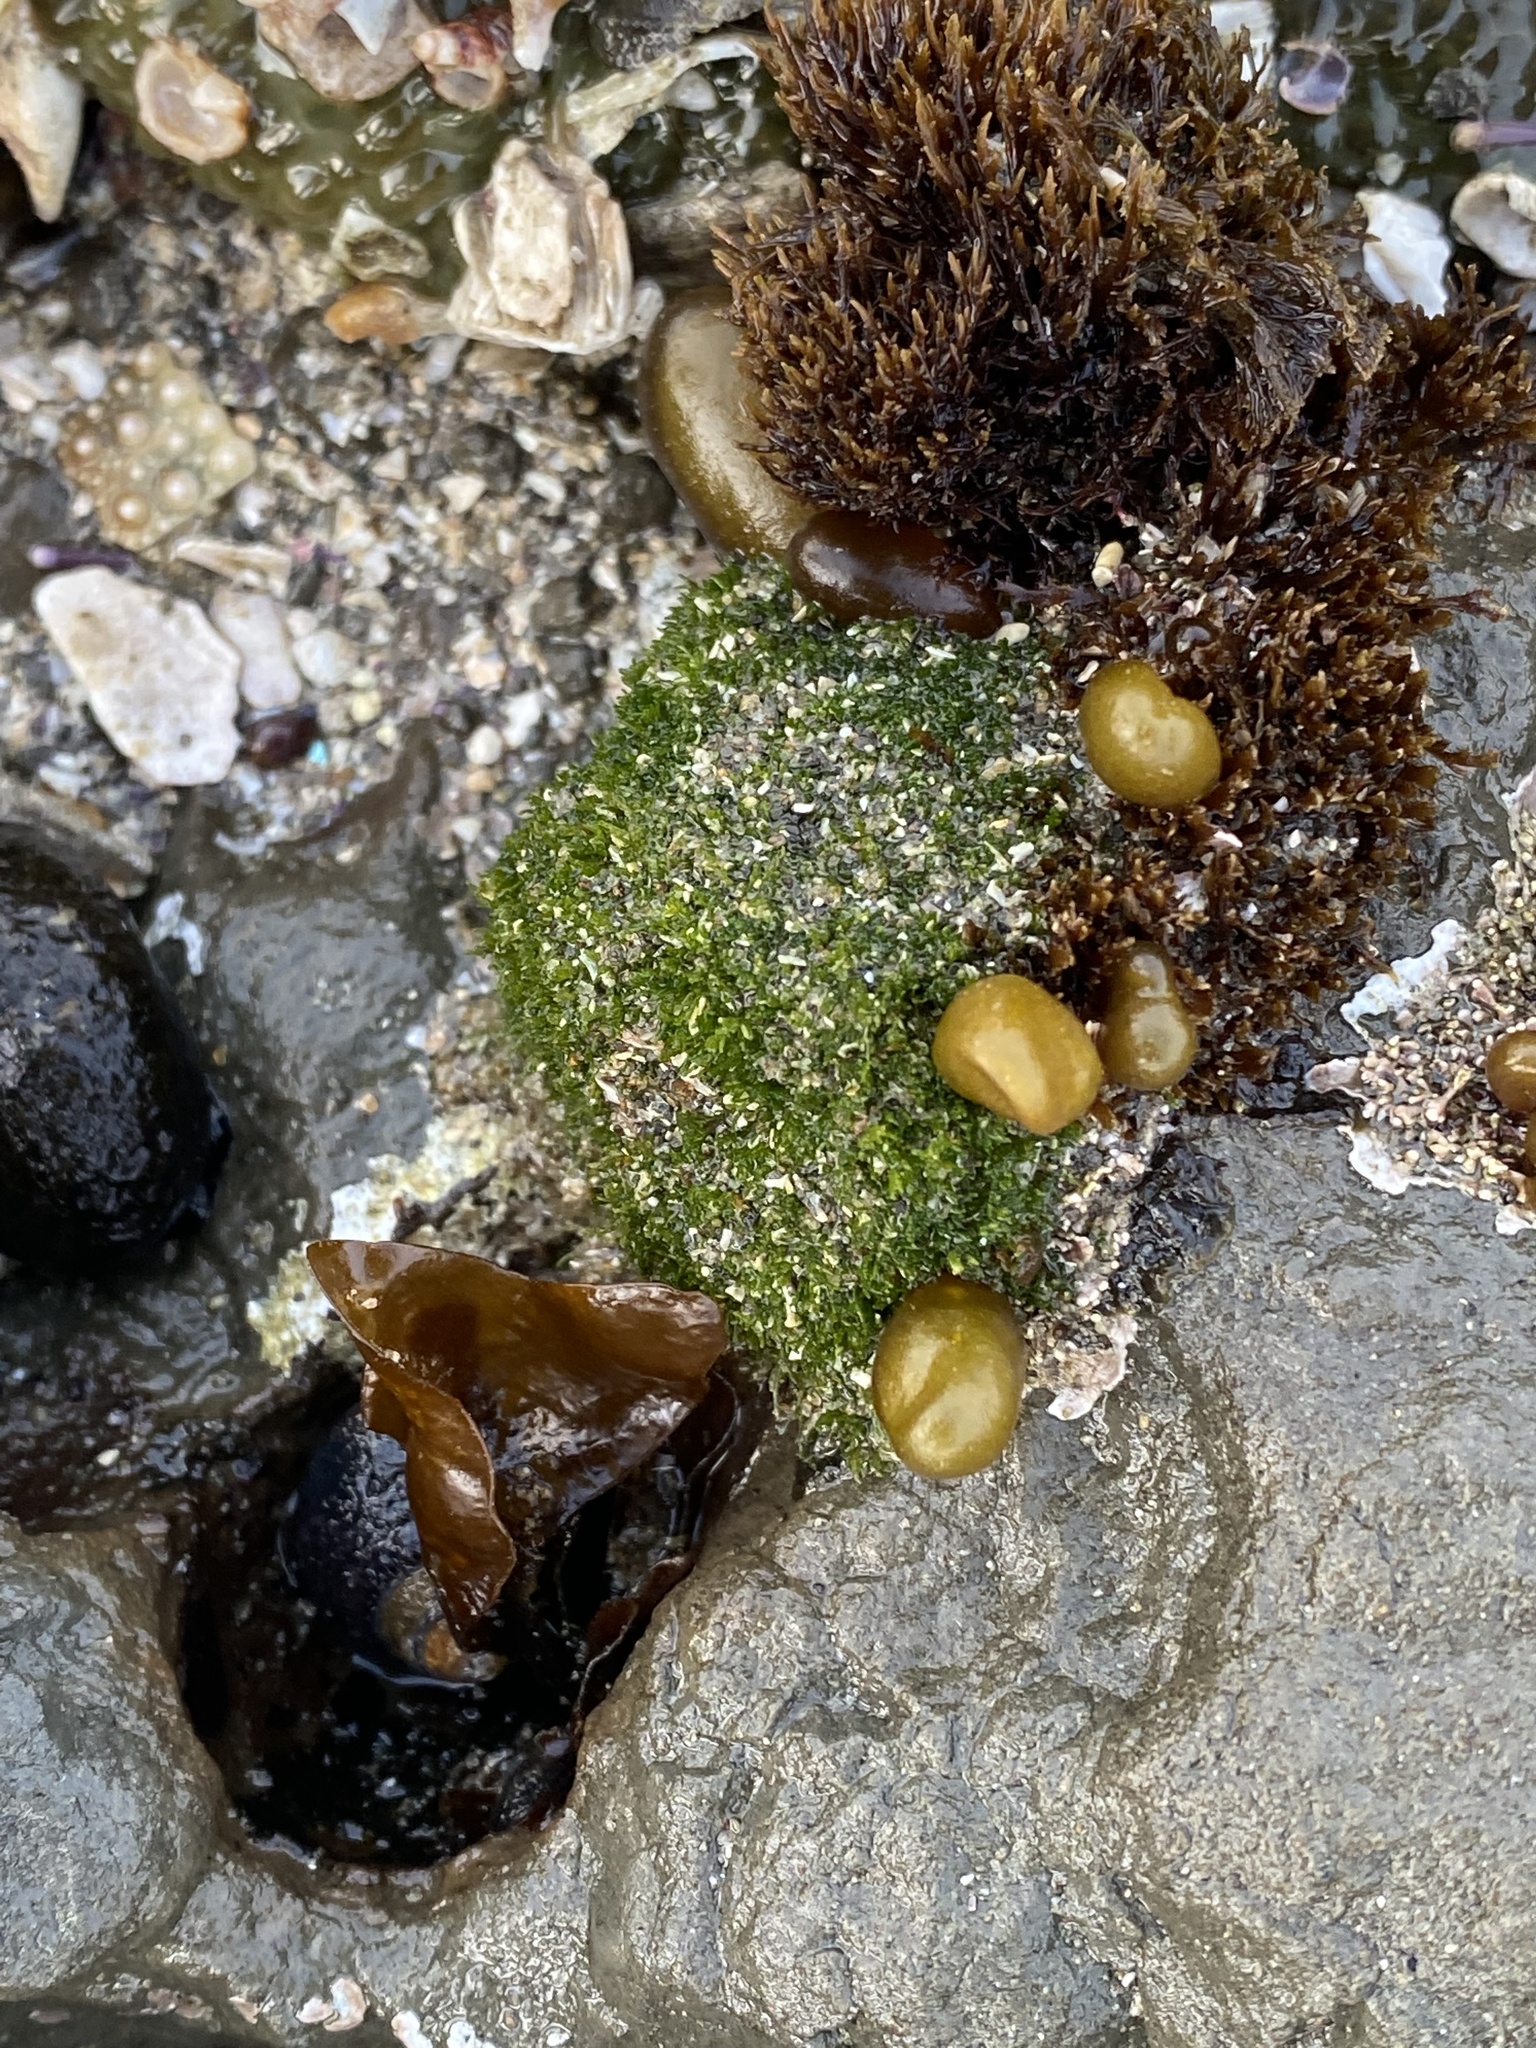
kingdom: Plantae
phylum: Chlorophyta
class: Ulvophyceae
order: Cladophorales
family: Cladophoraceae
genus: Cladophora
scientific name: Cladophora columbiana
